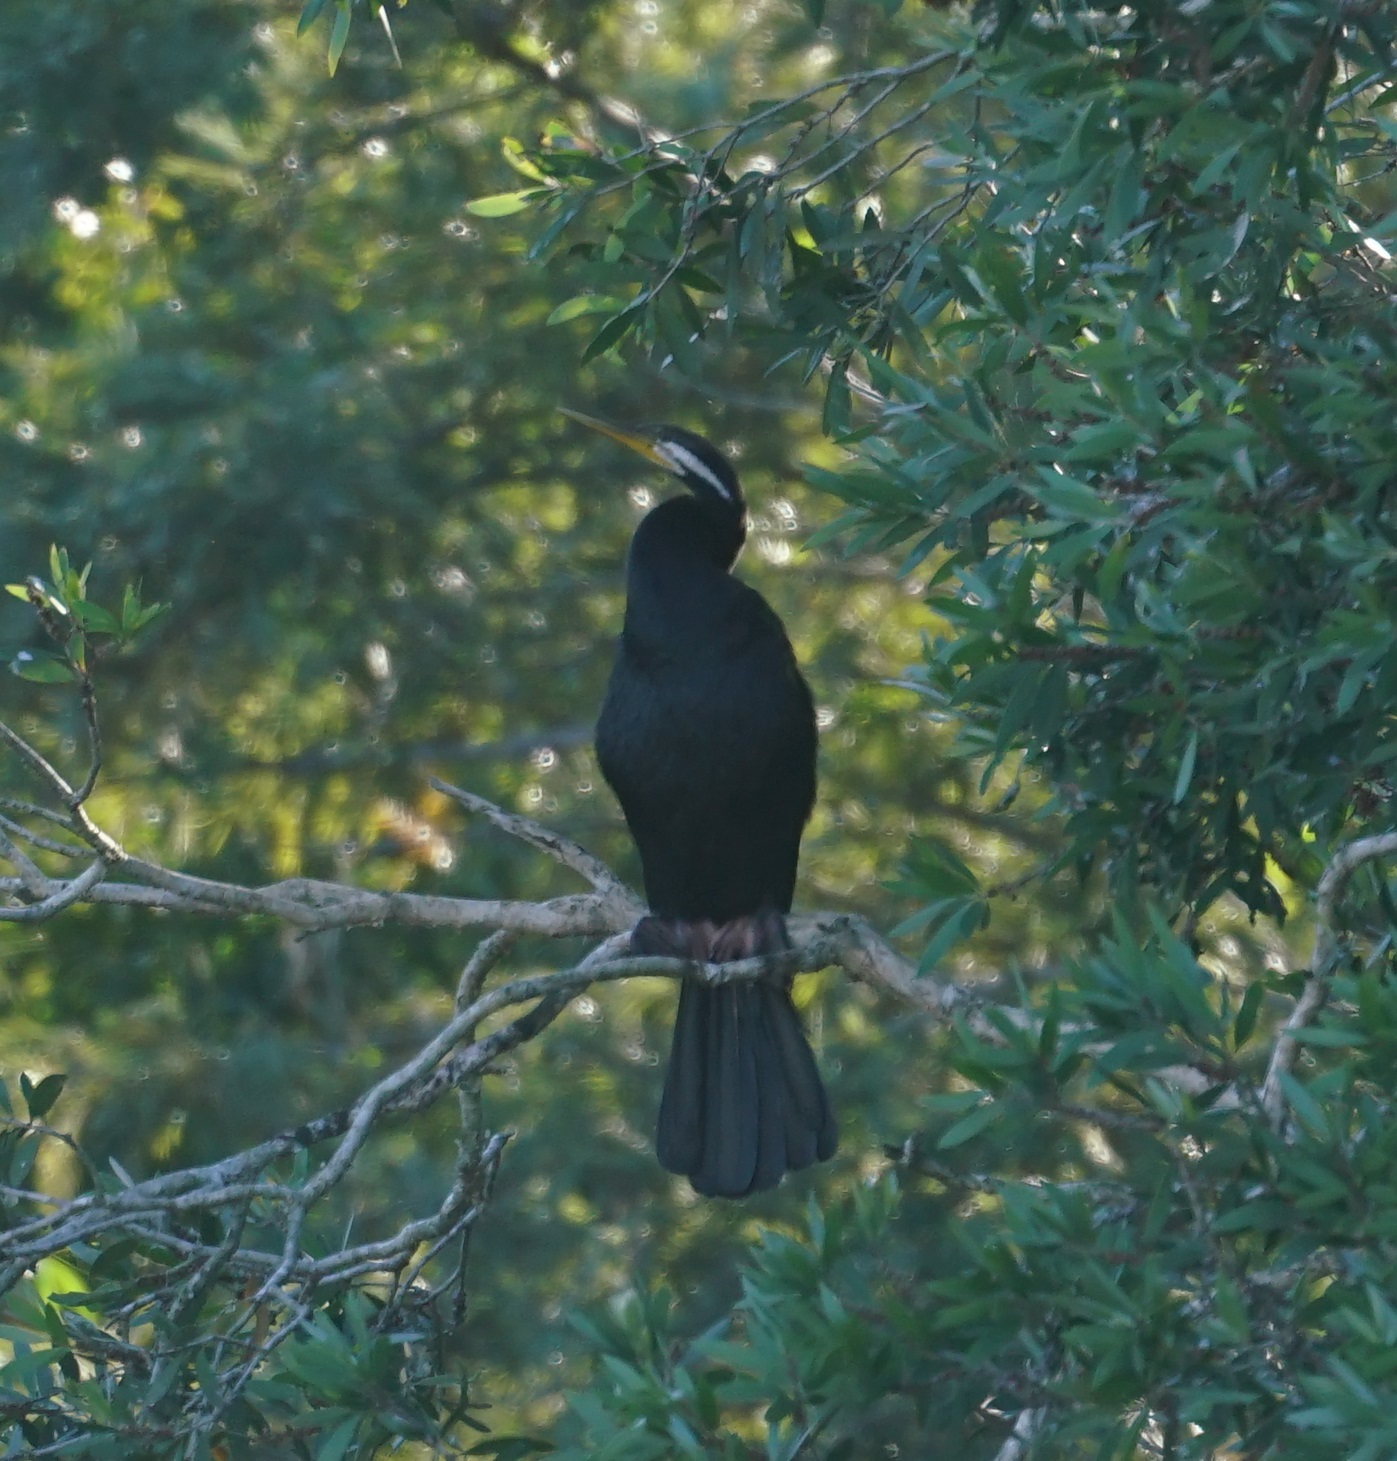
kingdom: Animalia
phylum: Chordata
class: Aves
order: Suliformes
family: Anhingidae
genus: Anhinga
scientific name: Anhinga novaehollandiae
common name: Australasian darter
